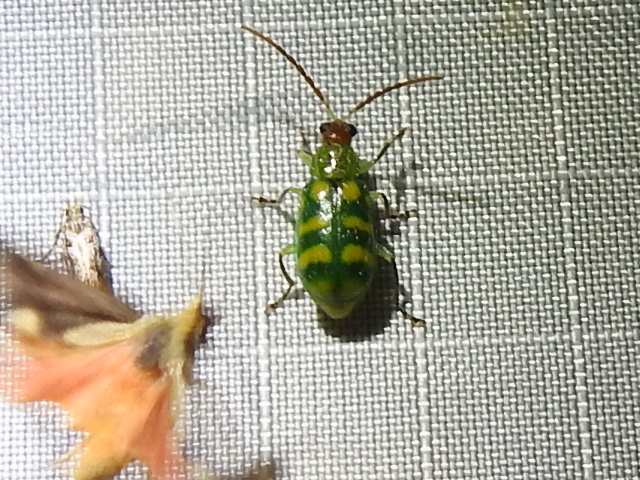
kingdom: Animalia
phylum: Arthropoda
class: Insecta
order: Coleoptera
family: Chrysomelidae
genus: Diabrotica
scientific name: Diabrotica balteata
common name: Leaf beetle
